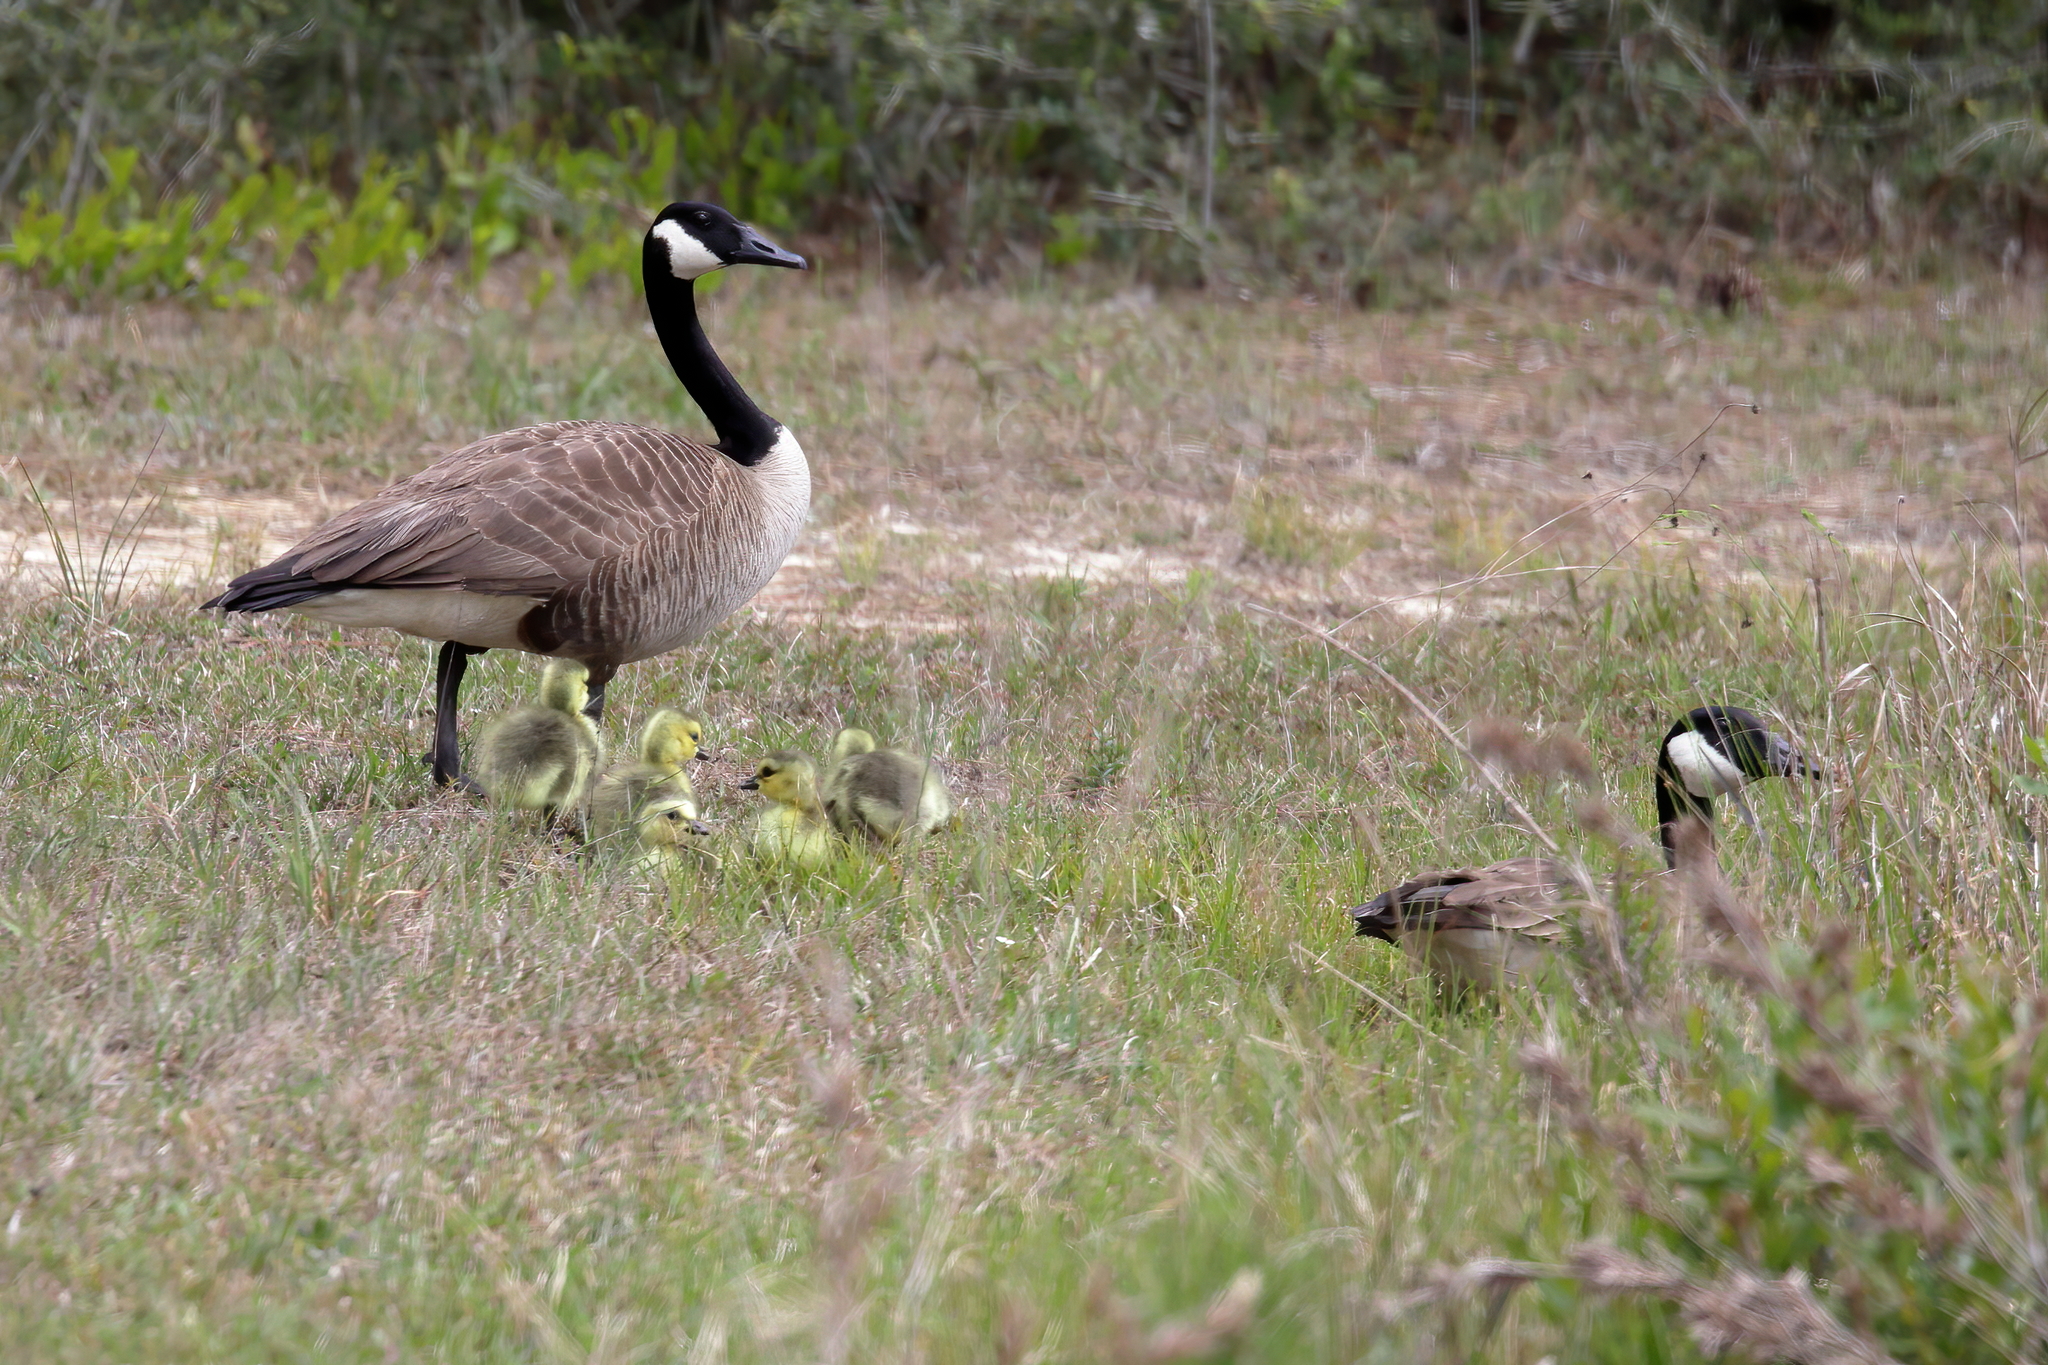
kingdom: Animalia
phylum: Chordata
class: Aves
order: Anseriformes
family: Anatidae
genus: Branta
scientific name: Branta canadensis
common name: Canada goose
